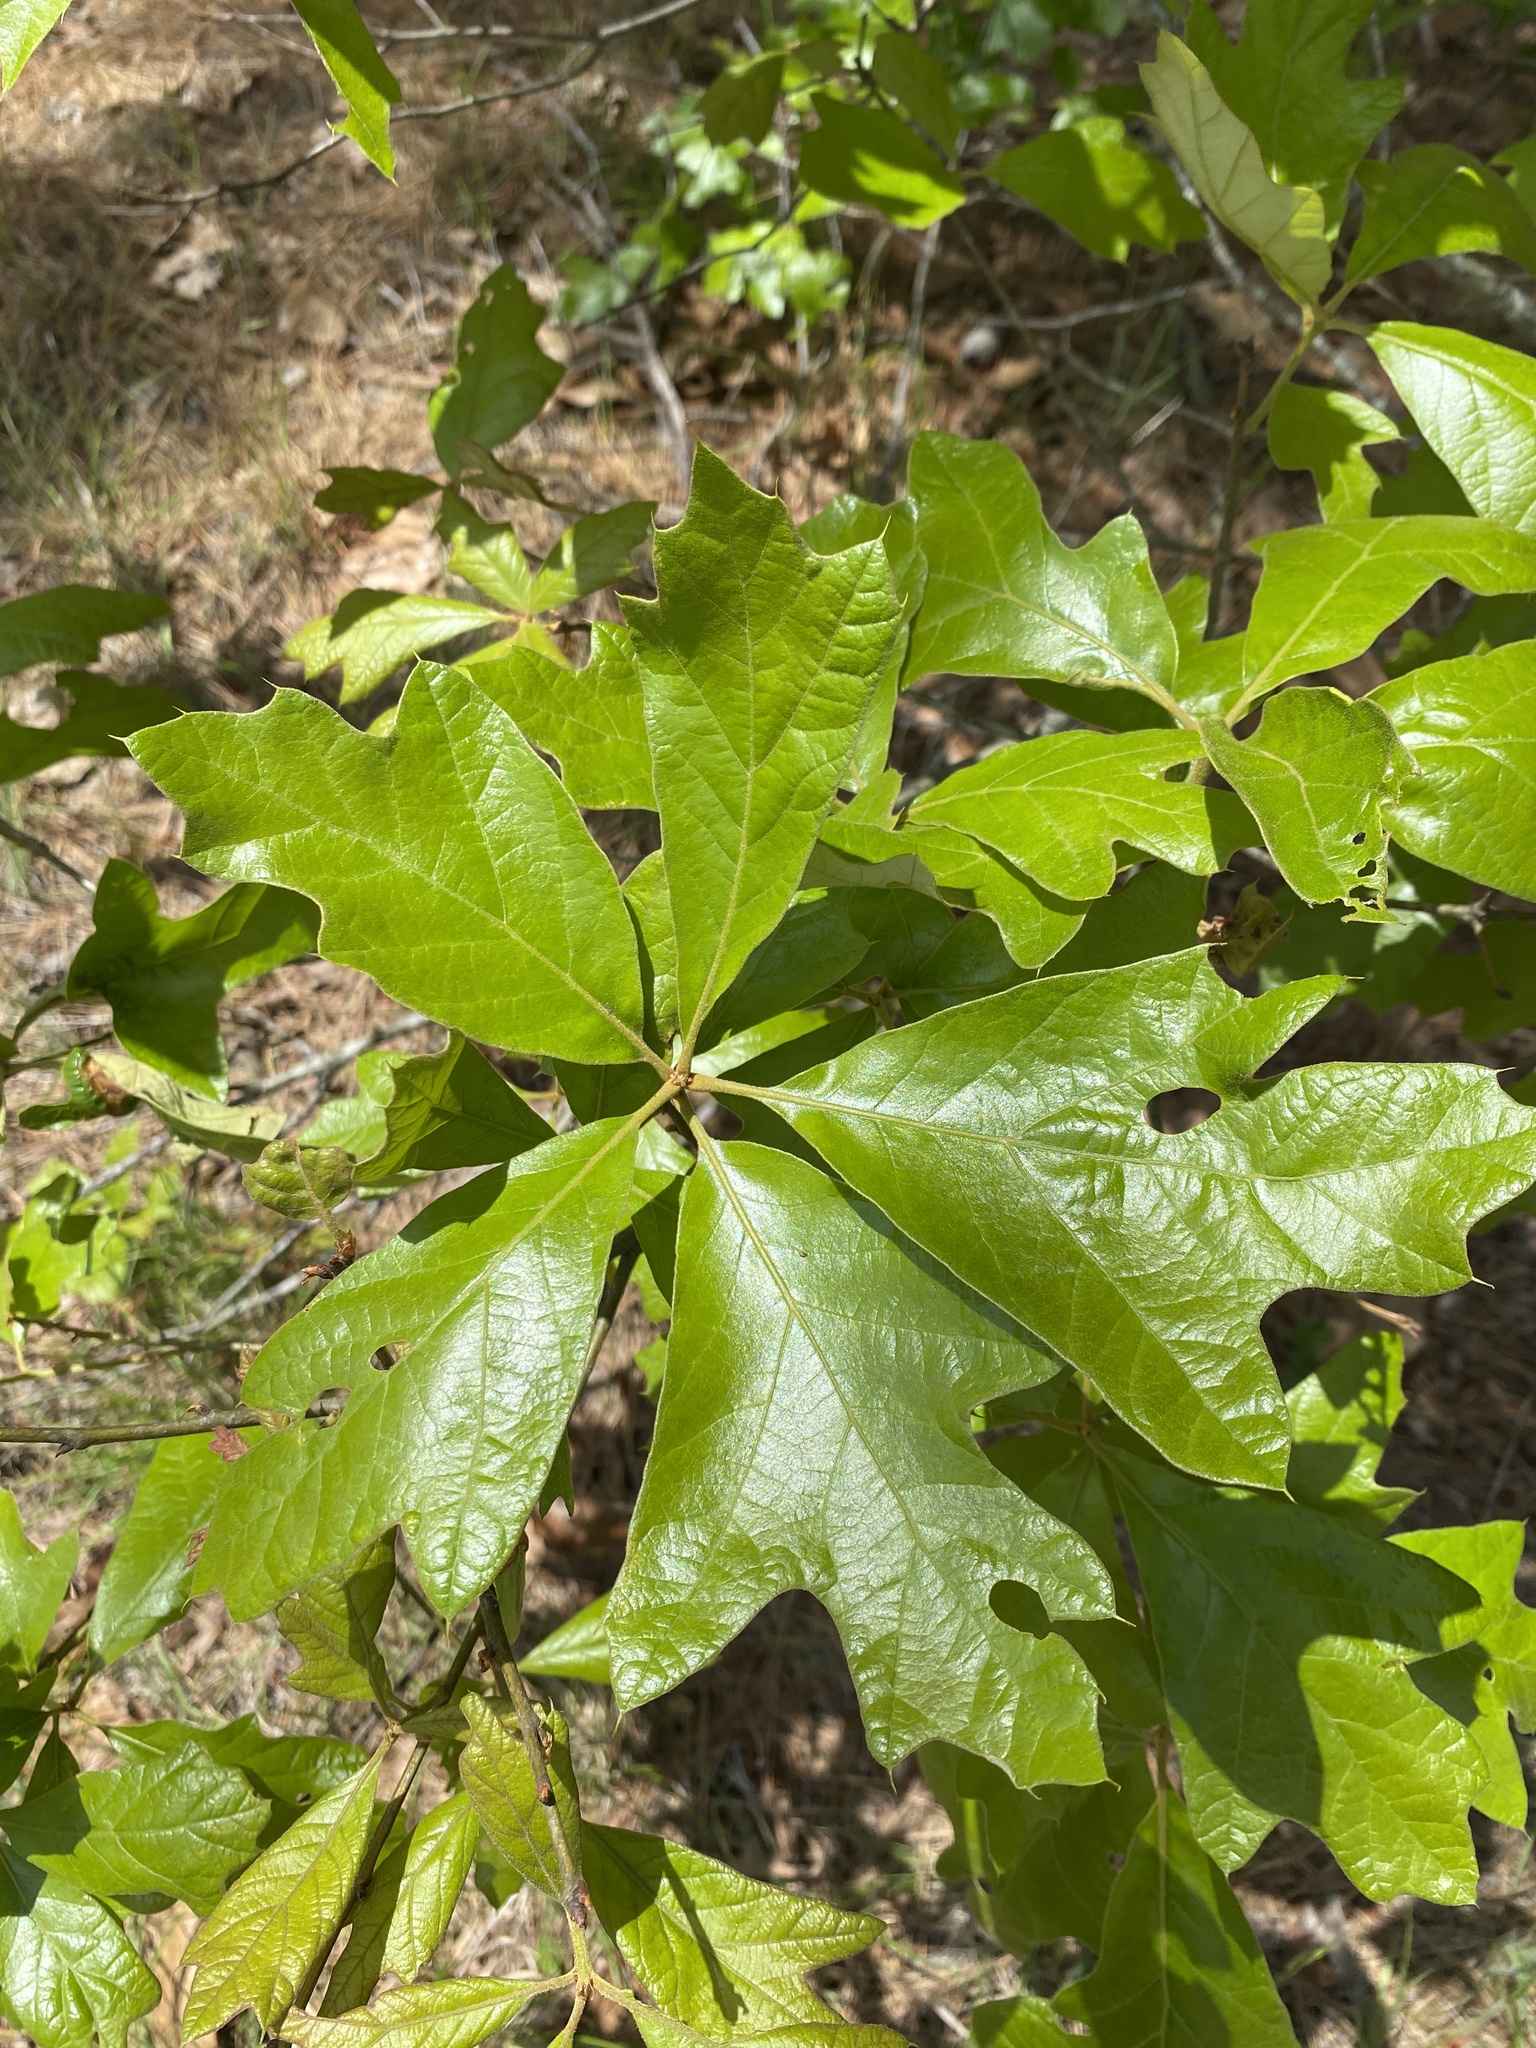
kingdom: Plantae
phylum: Tracheophyta
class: Magnoliopsida
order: Fagales
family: Fagaceae
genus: Quercus
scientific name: Quercus falcata
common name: Southern red oak
